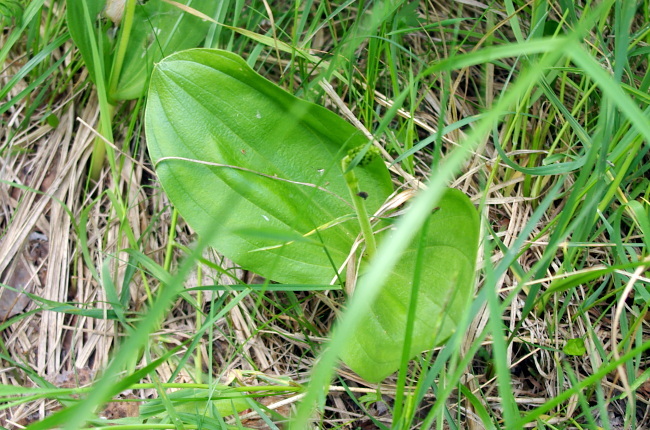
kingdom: Plantae
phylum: Tracheophyta
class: Liliopsida
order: Asparagales
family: Orchidaceae
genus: Neottia
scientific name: Neottia ovata
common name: Common twayblade
